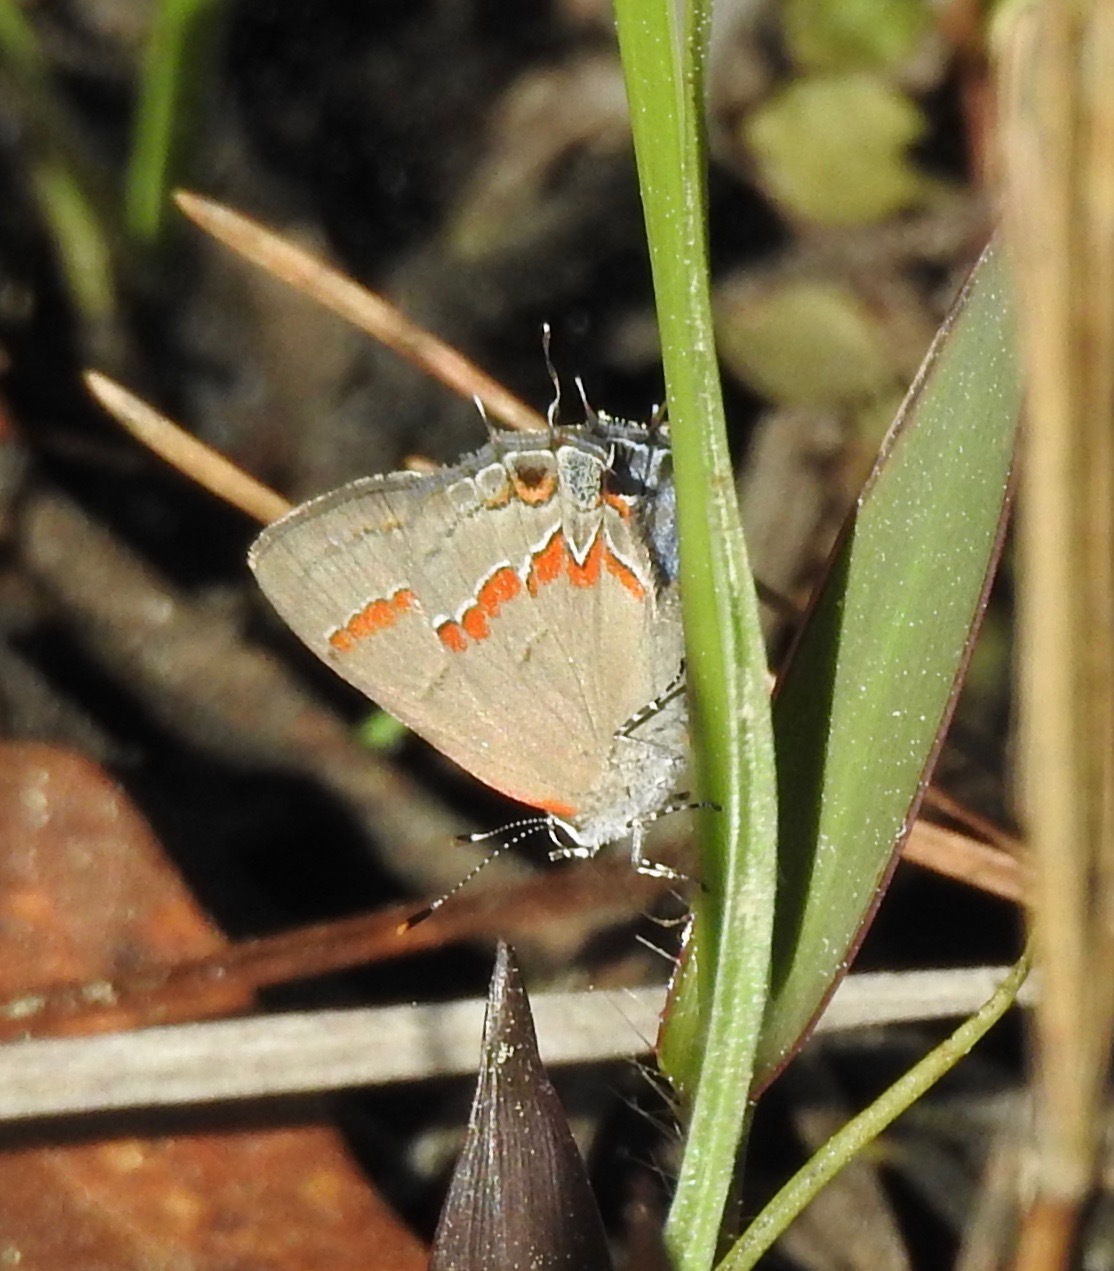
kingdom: Animalia
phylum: Arthropoda
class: Insecta
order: Lepidoptera
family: Lycaenidae
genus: Calycopis
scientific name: Calycopis cecrops
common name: Red-banded hairstreak
